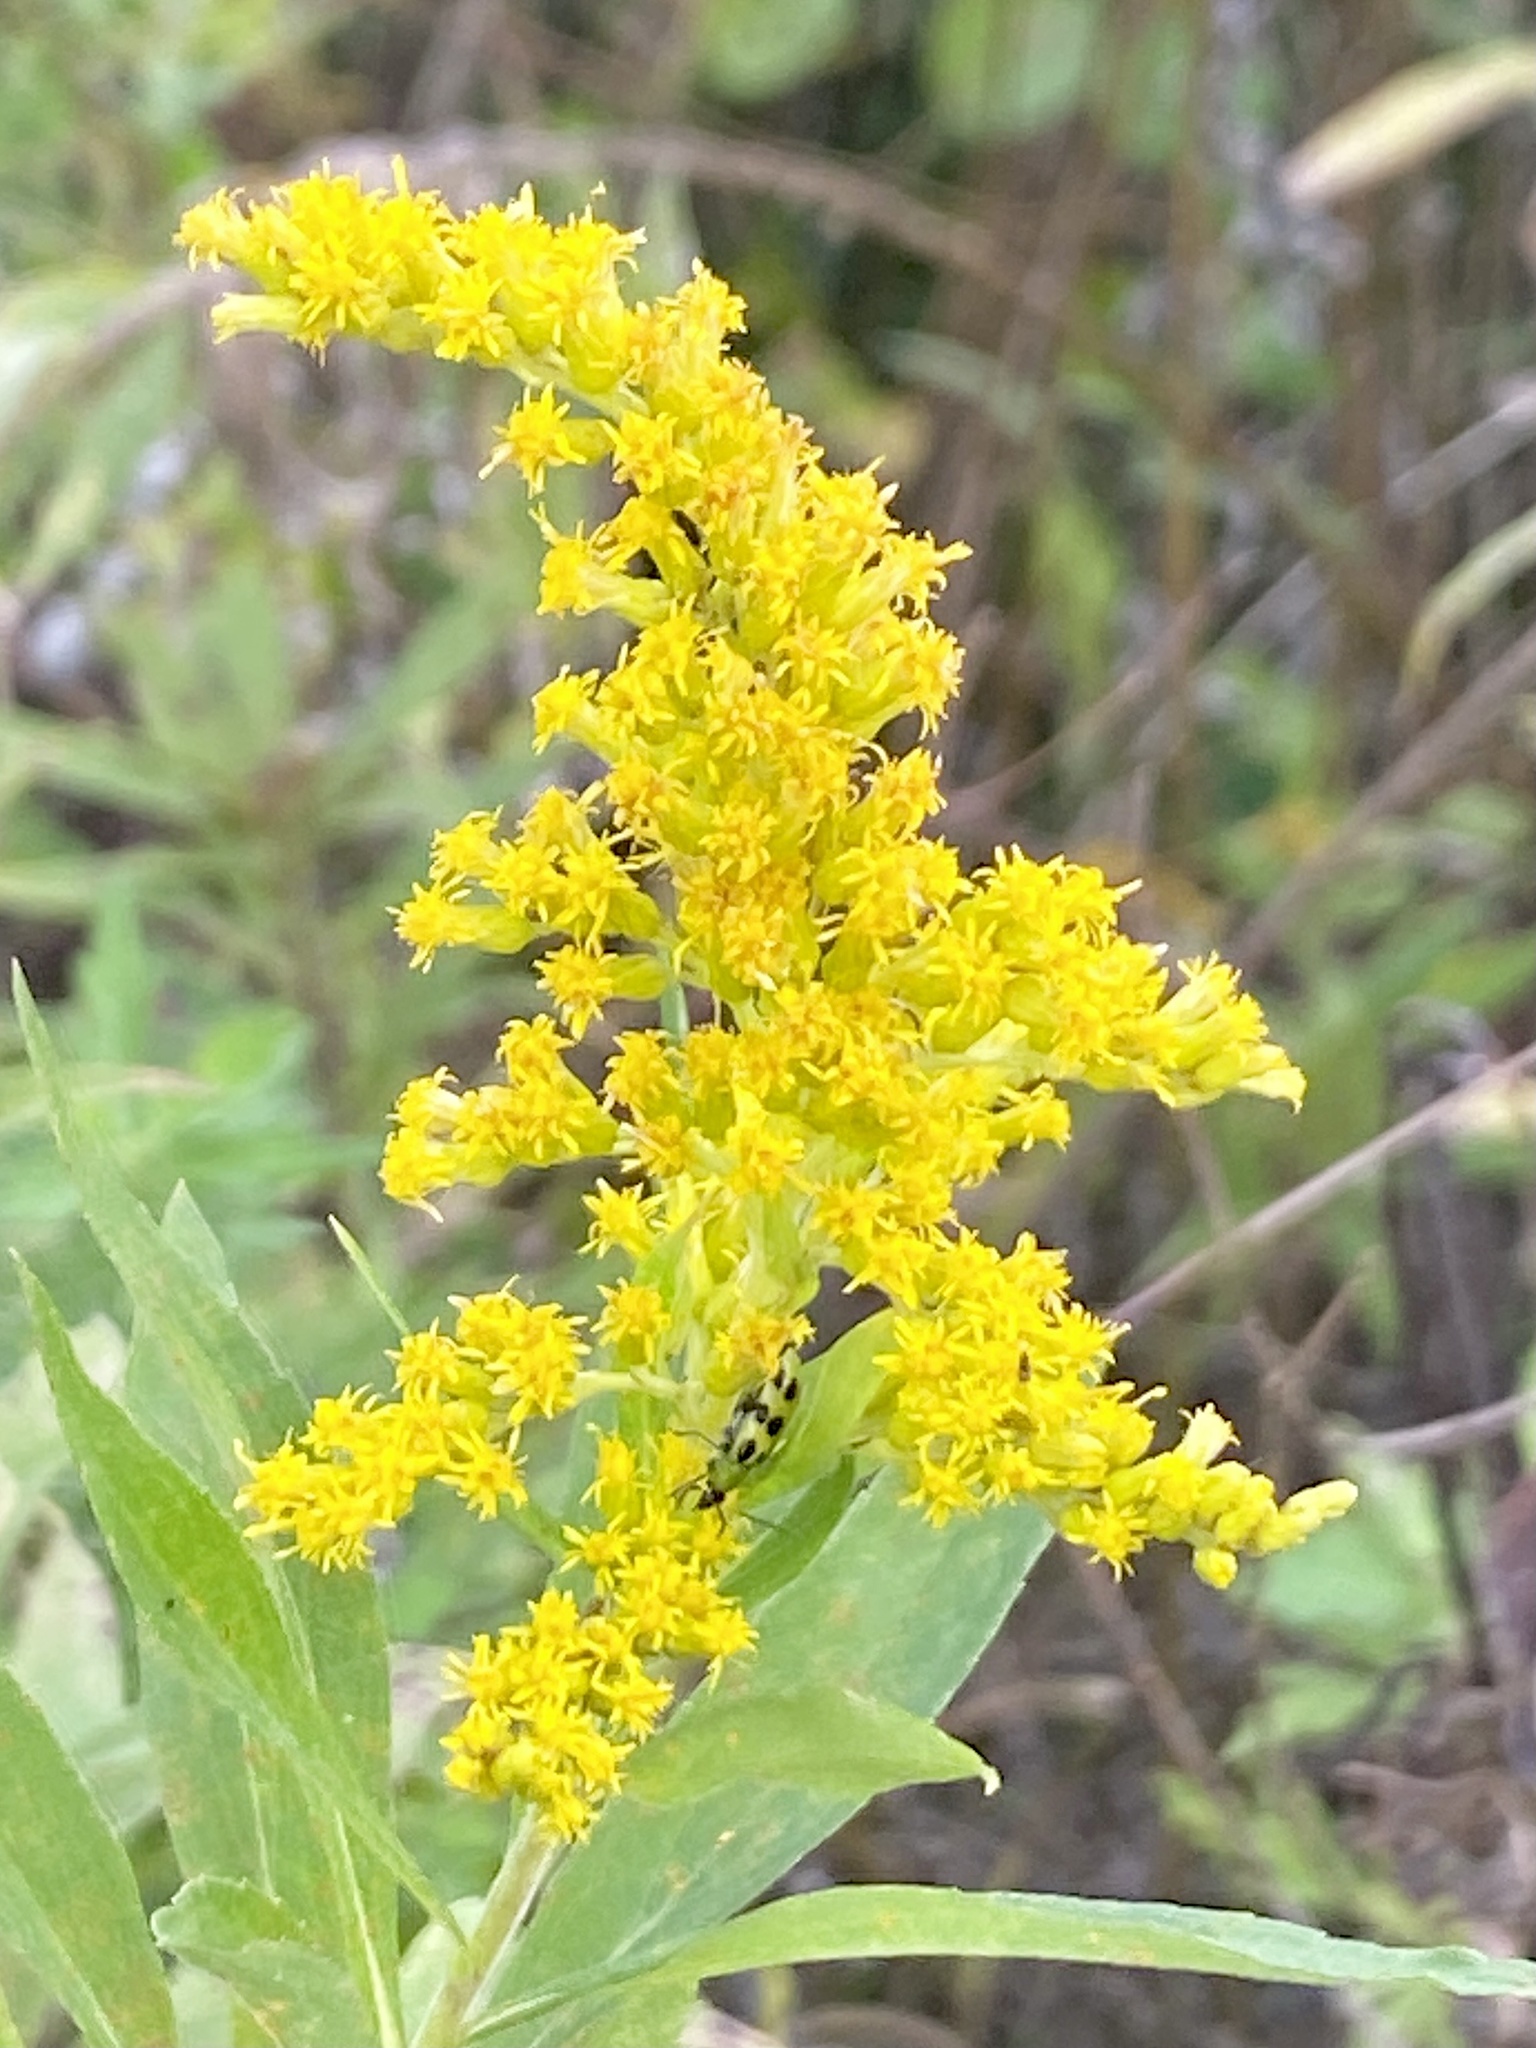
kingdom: Animalia
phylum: Arthropoda
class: Insecta
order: Coleoptera
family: Chrysomelidae
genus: Diabrotica
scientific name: Diabrotica undecimpunctata
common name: Spotted cucumber beetle
